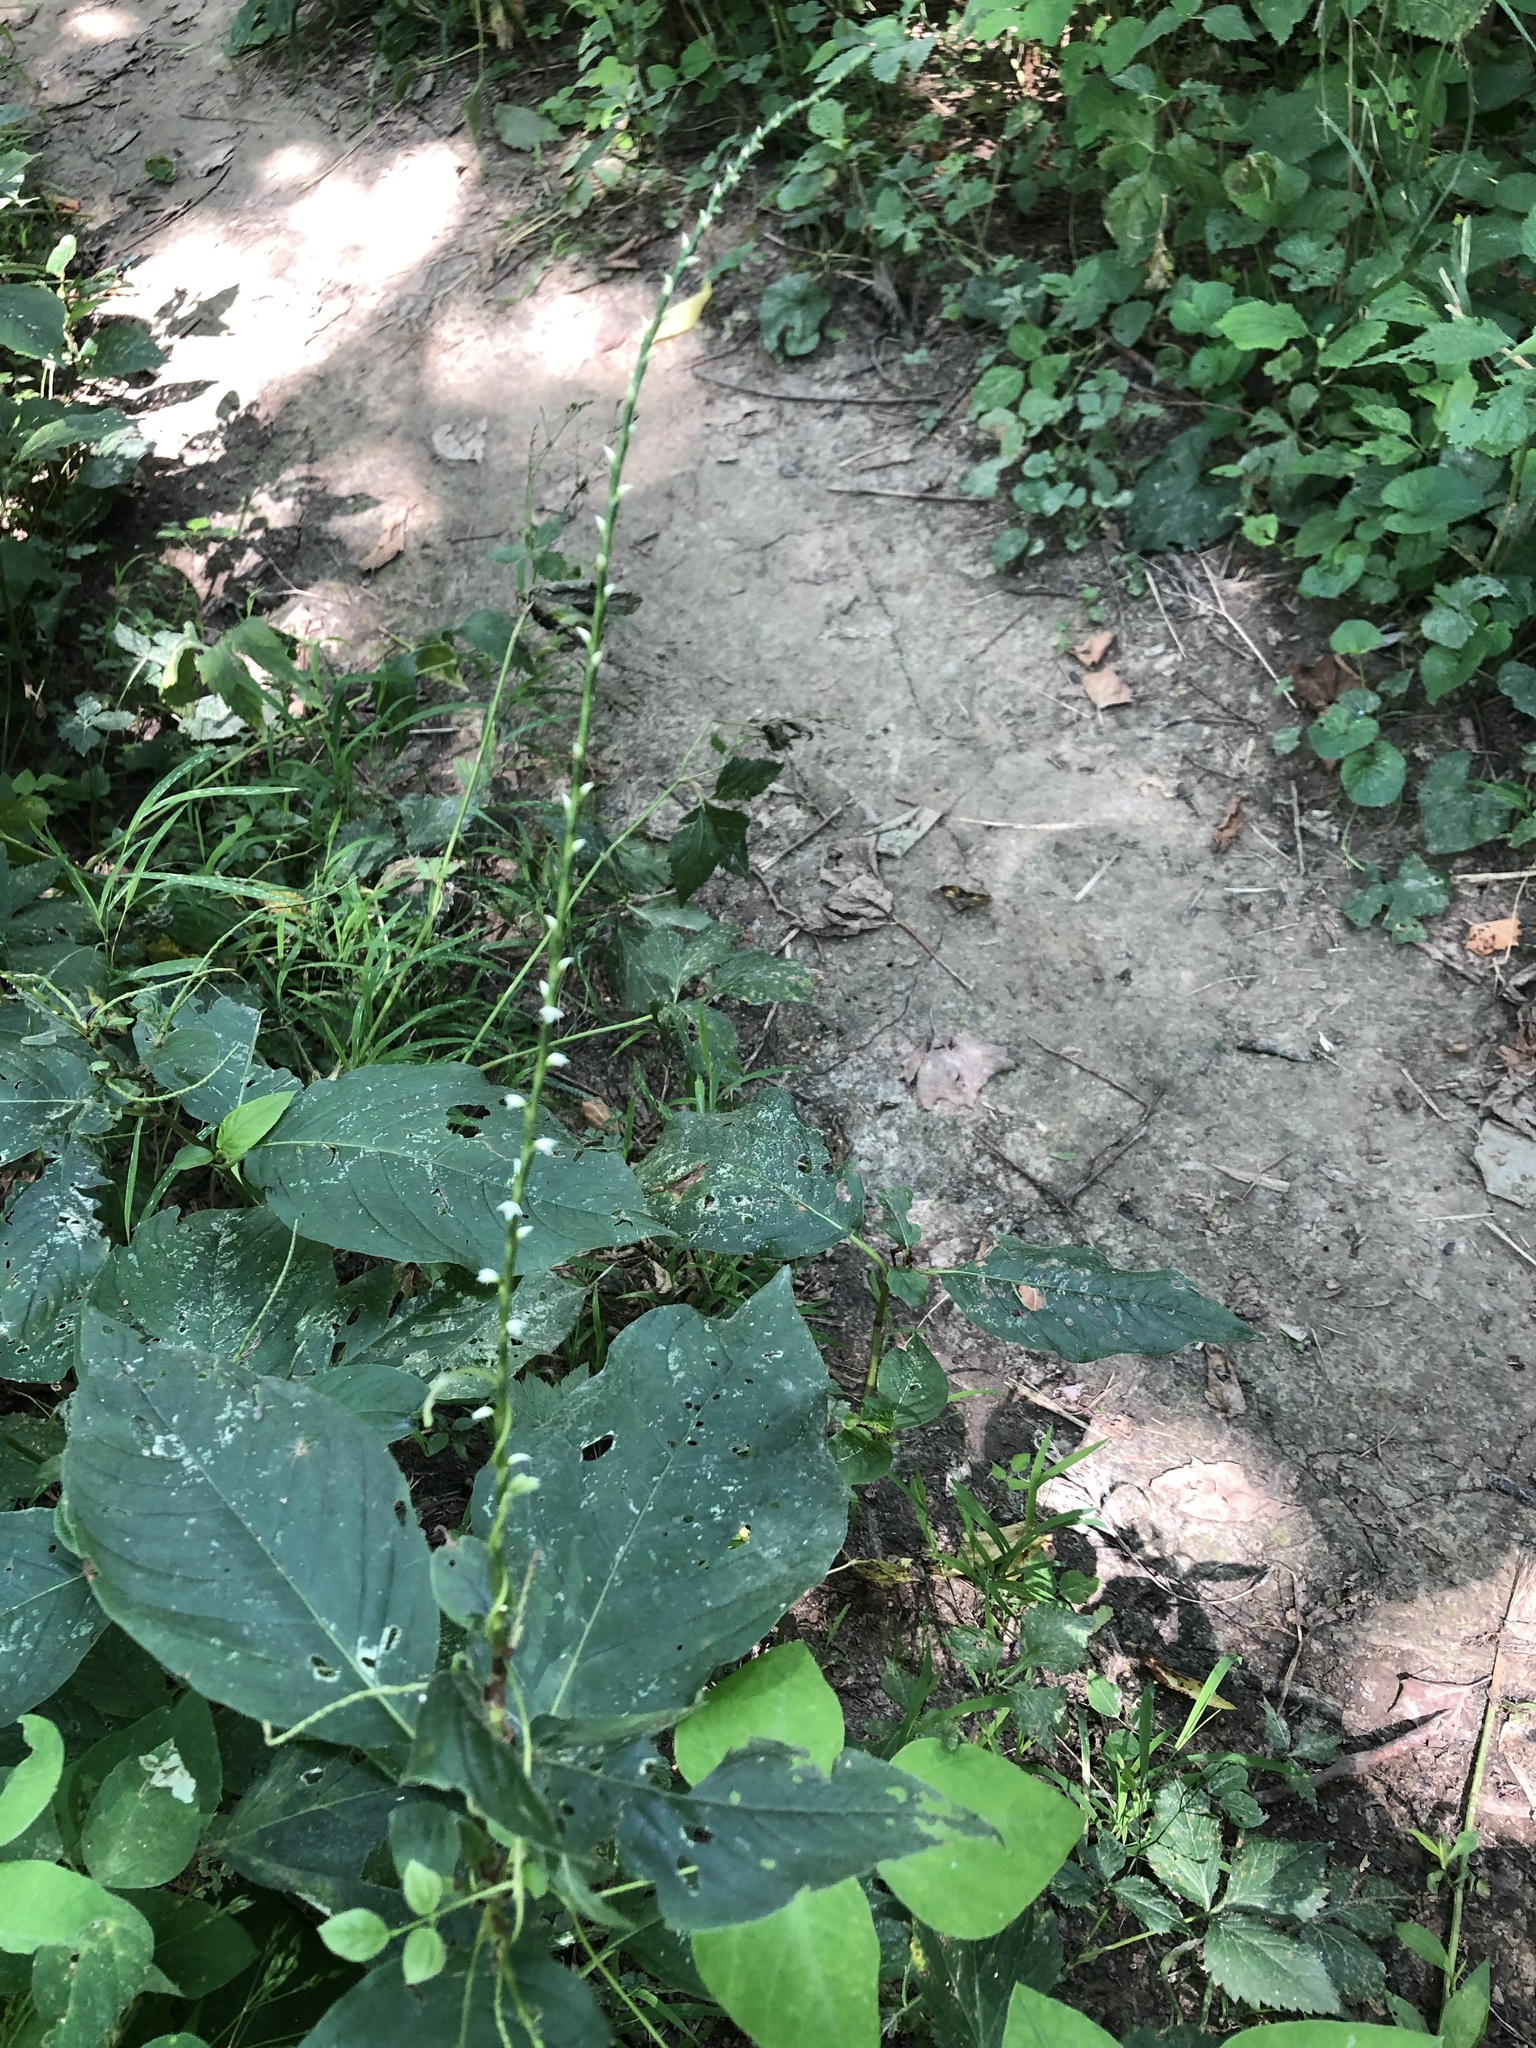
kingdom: Plantae
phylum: Tracheophyta
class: Magnoliopsida
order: Caryophyllales
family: Polygonaceae
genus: Persicaria
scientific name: Persicaria virginiana
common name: Jumpseed
